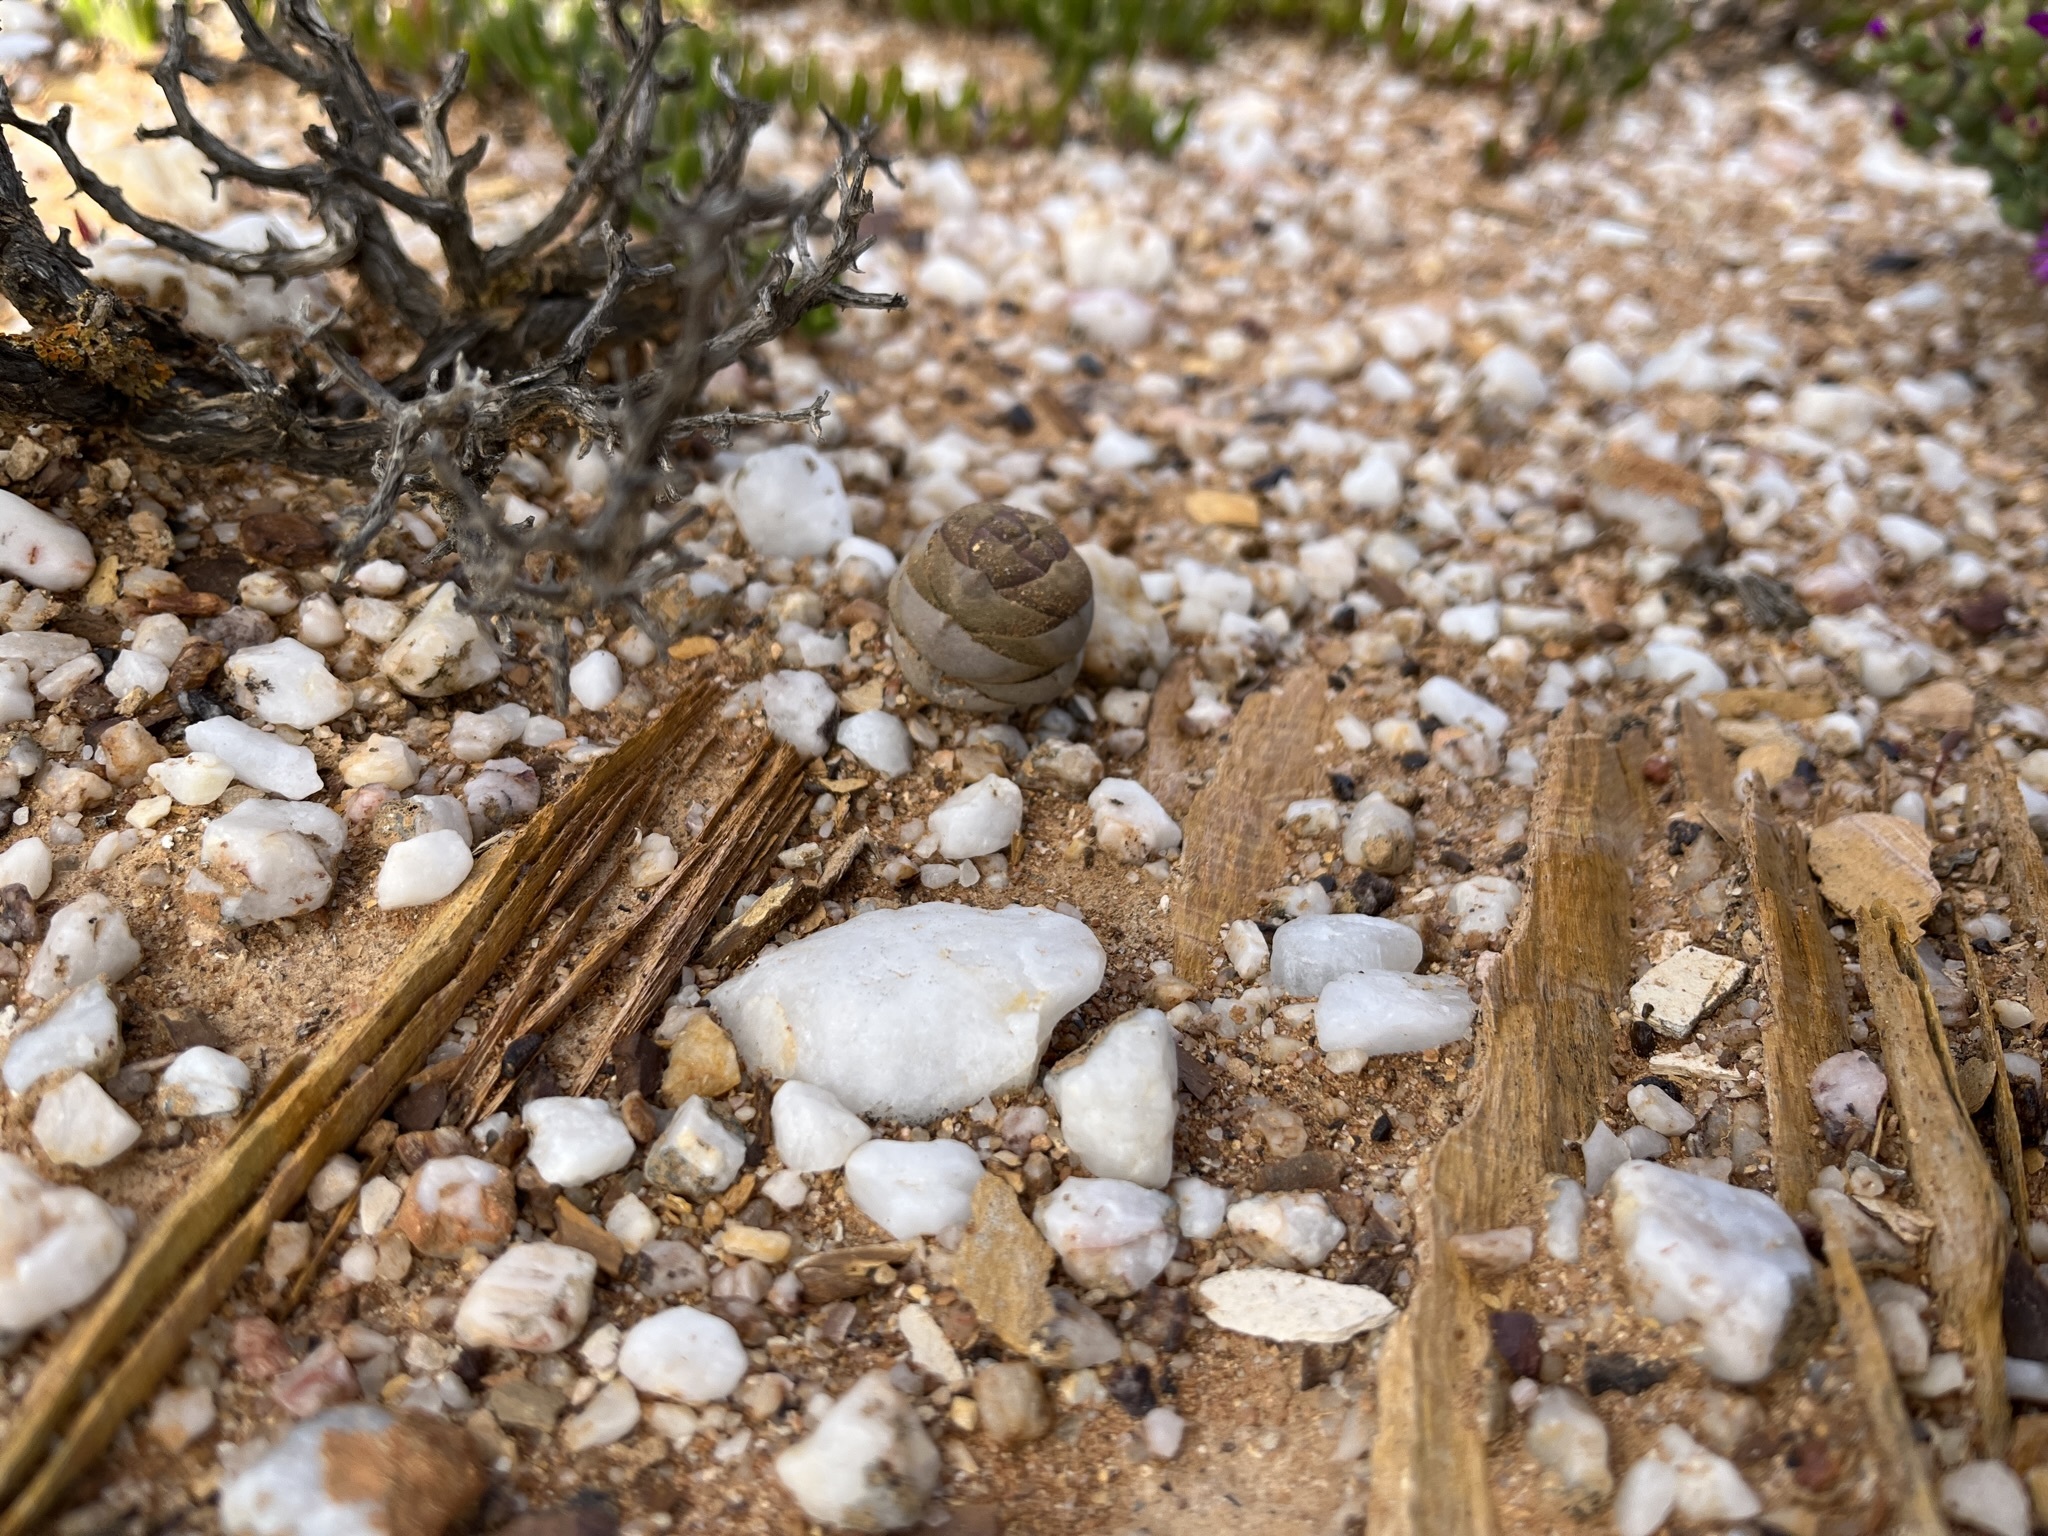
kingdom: Plantae
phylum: Tracheophyta
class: Magnoliopsida
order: Saxifragales
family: Crassulaceae
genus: Crassula
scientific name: Crassula columnaris
